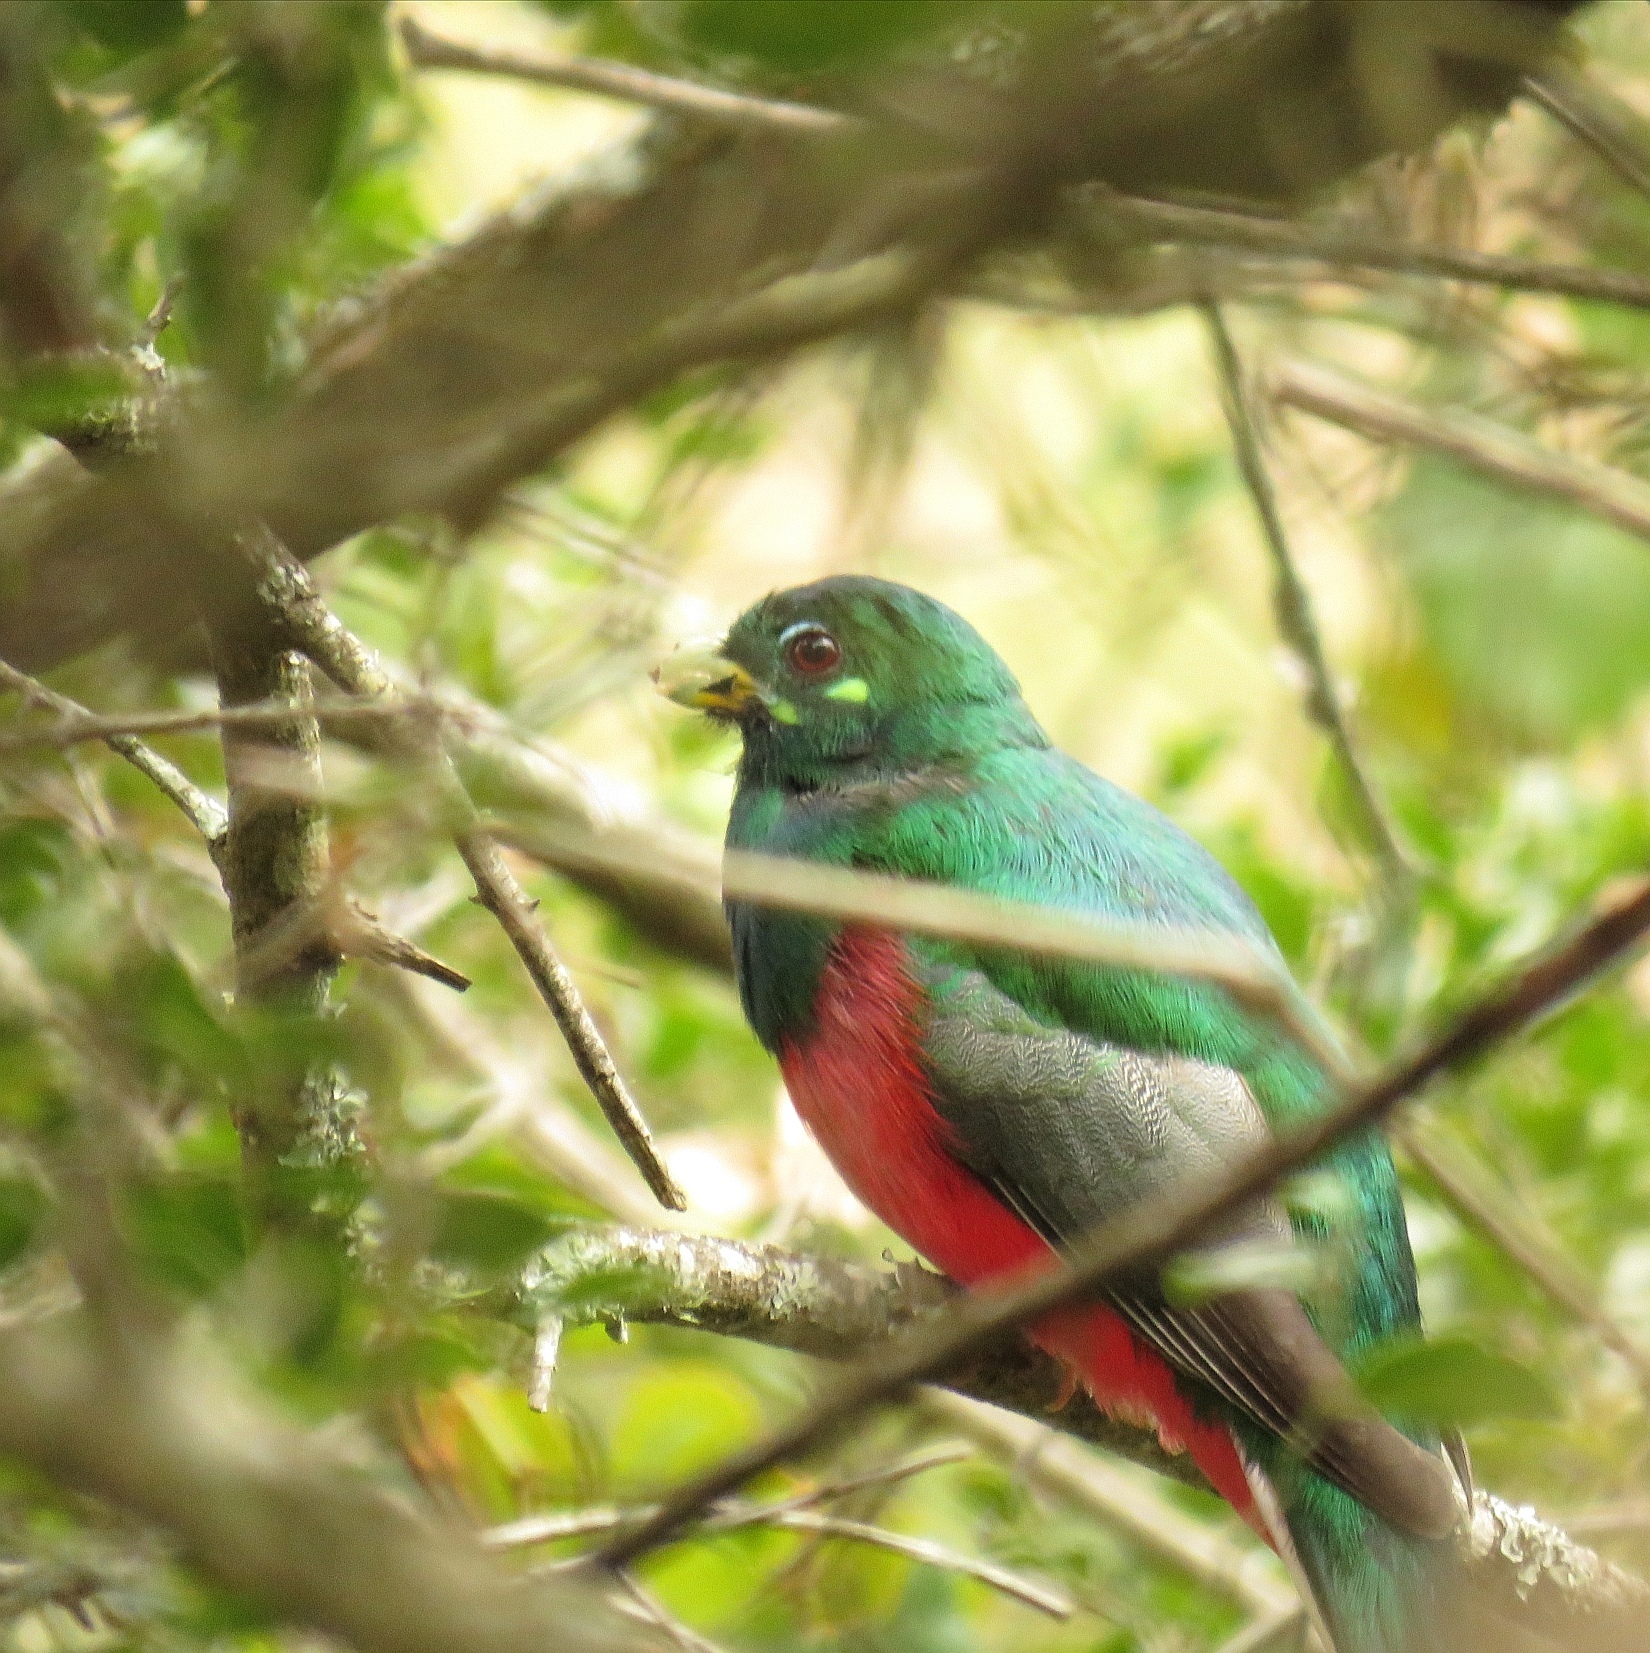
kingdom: Animalia
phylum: Chordata
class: Aves
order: Trogoniformes
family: Trogonidae
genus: Apaloderma
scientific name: Apaloderma narina
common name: Narina trogon
